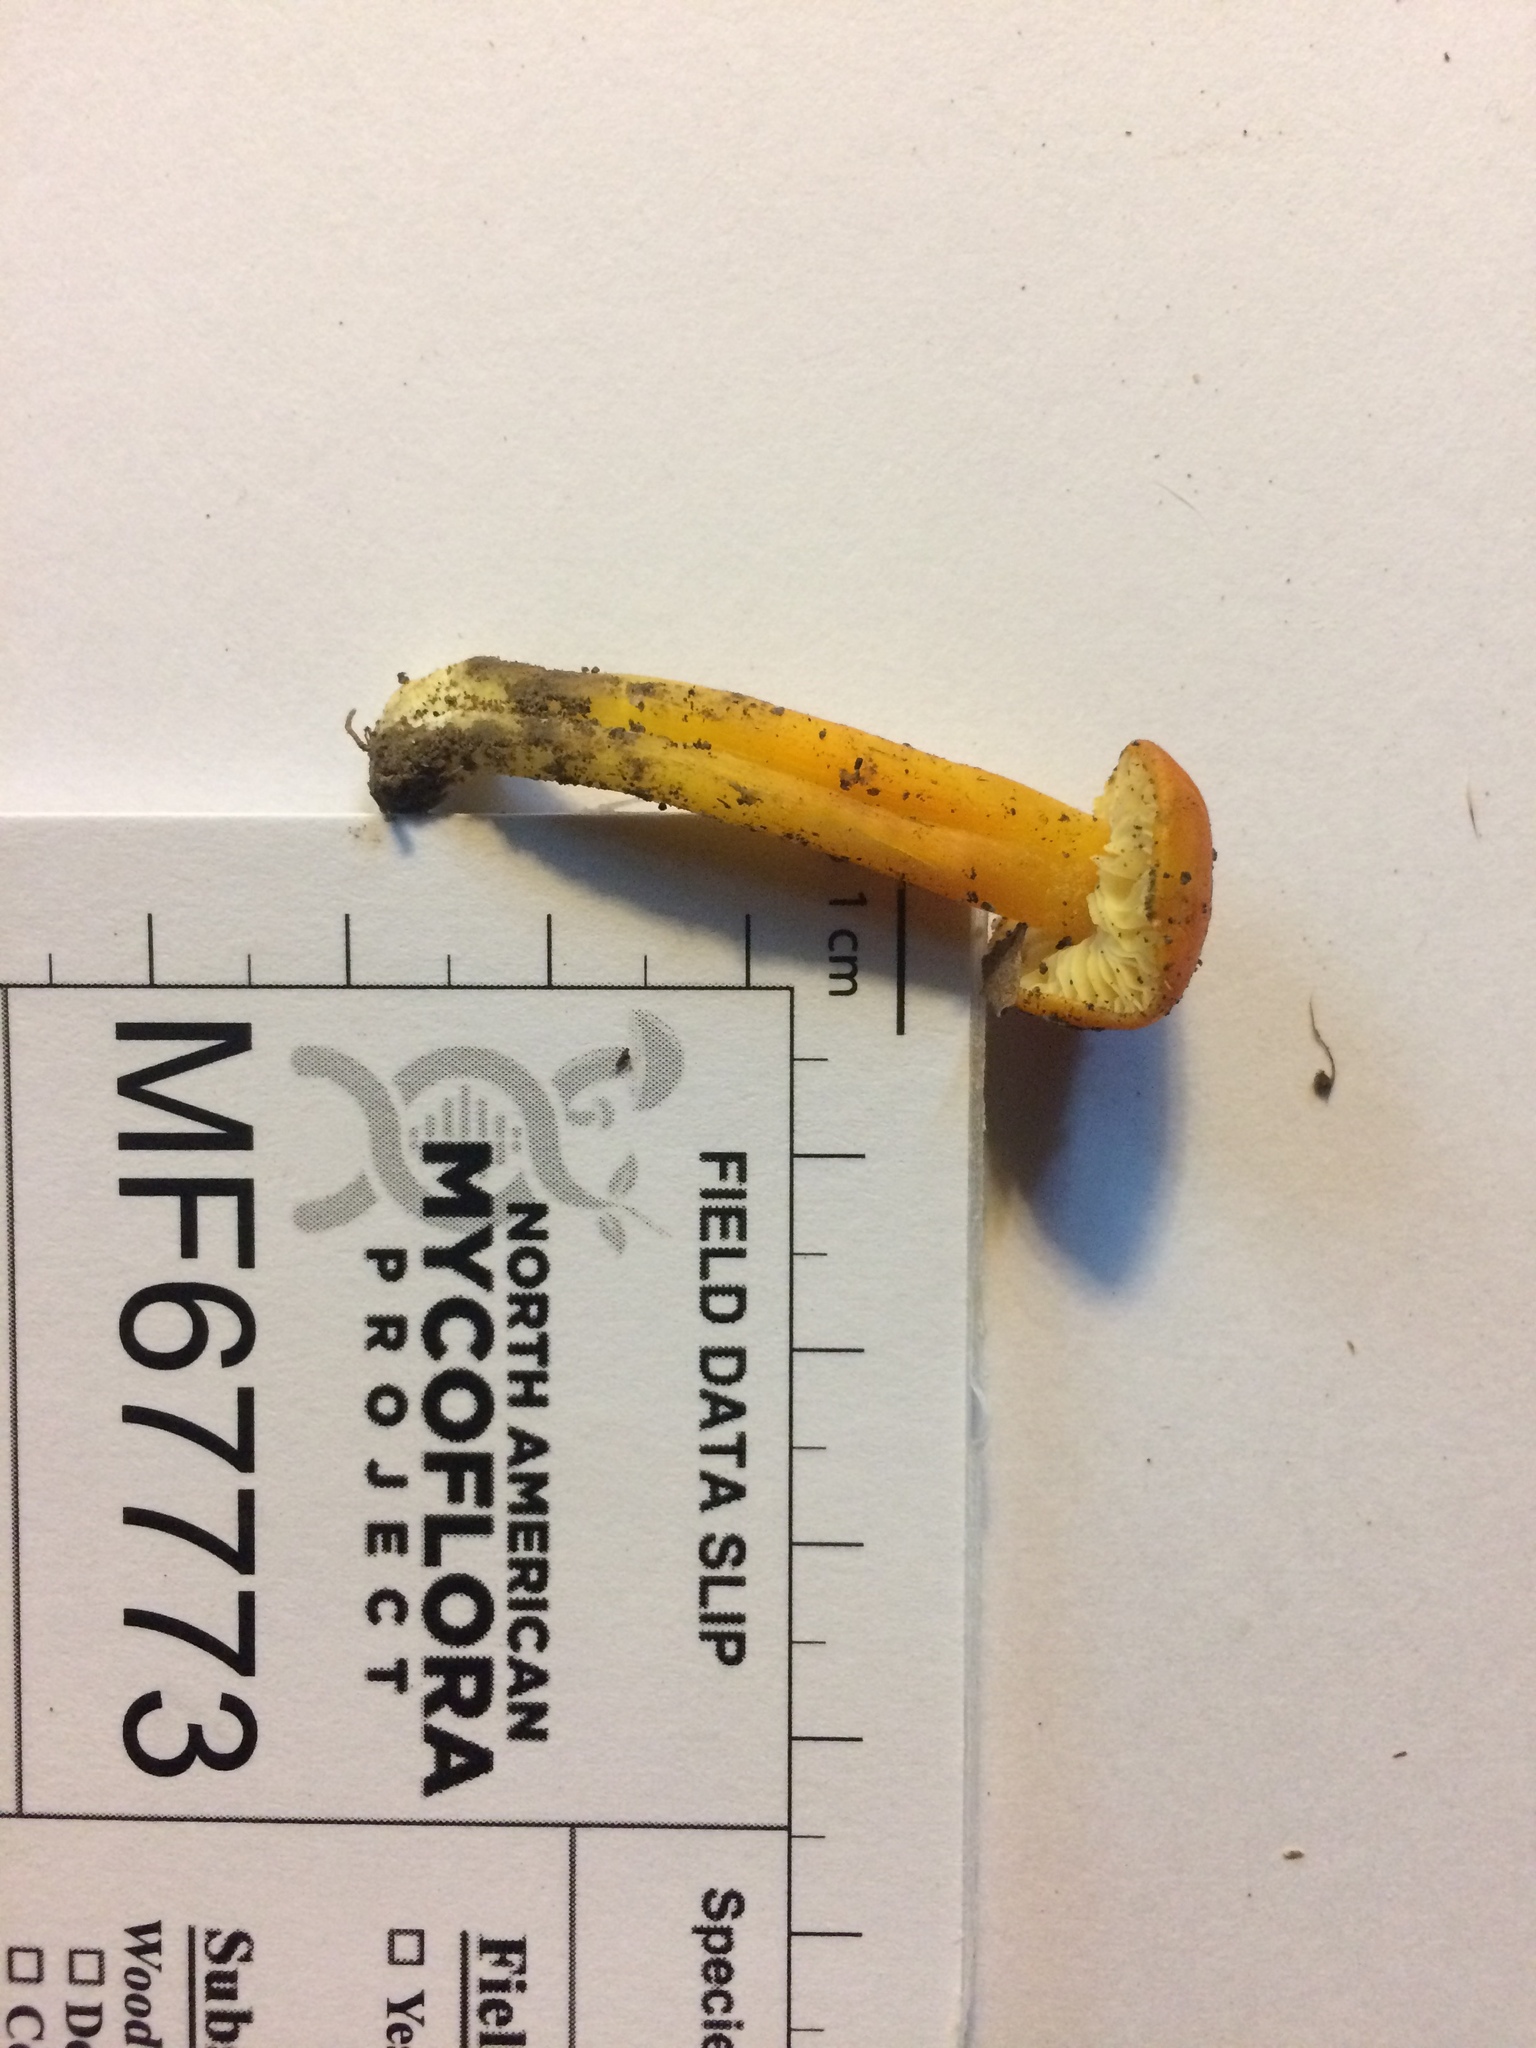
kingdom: Fungi
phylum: Basidiomycota
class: Agaricomycetes
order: Agaricales
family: Hygrophoraceae
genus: Hygrocybe
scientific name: Hygrocybe chlorophana
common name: Golden waxcap
